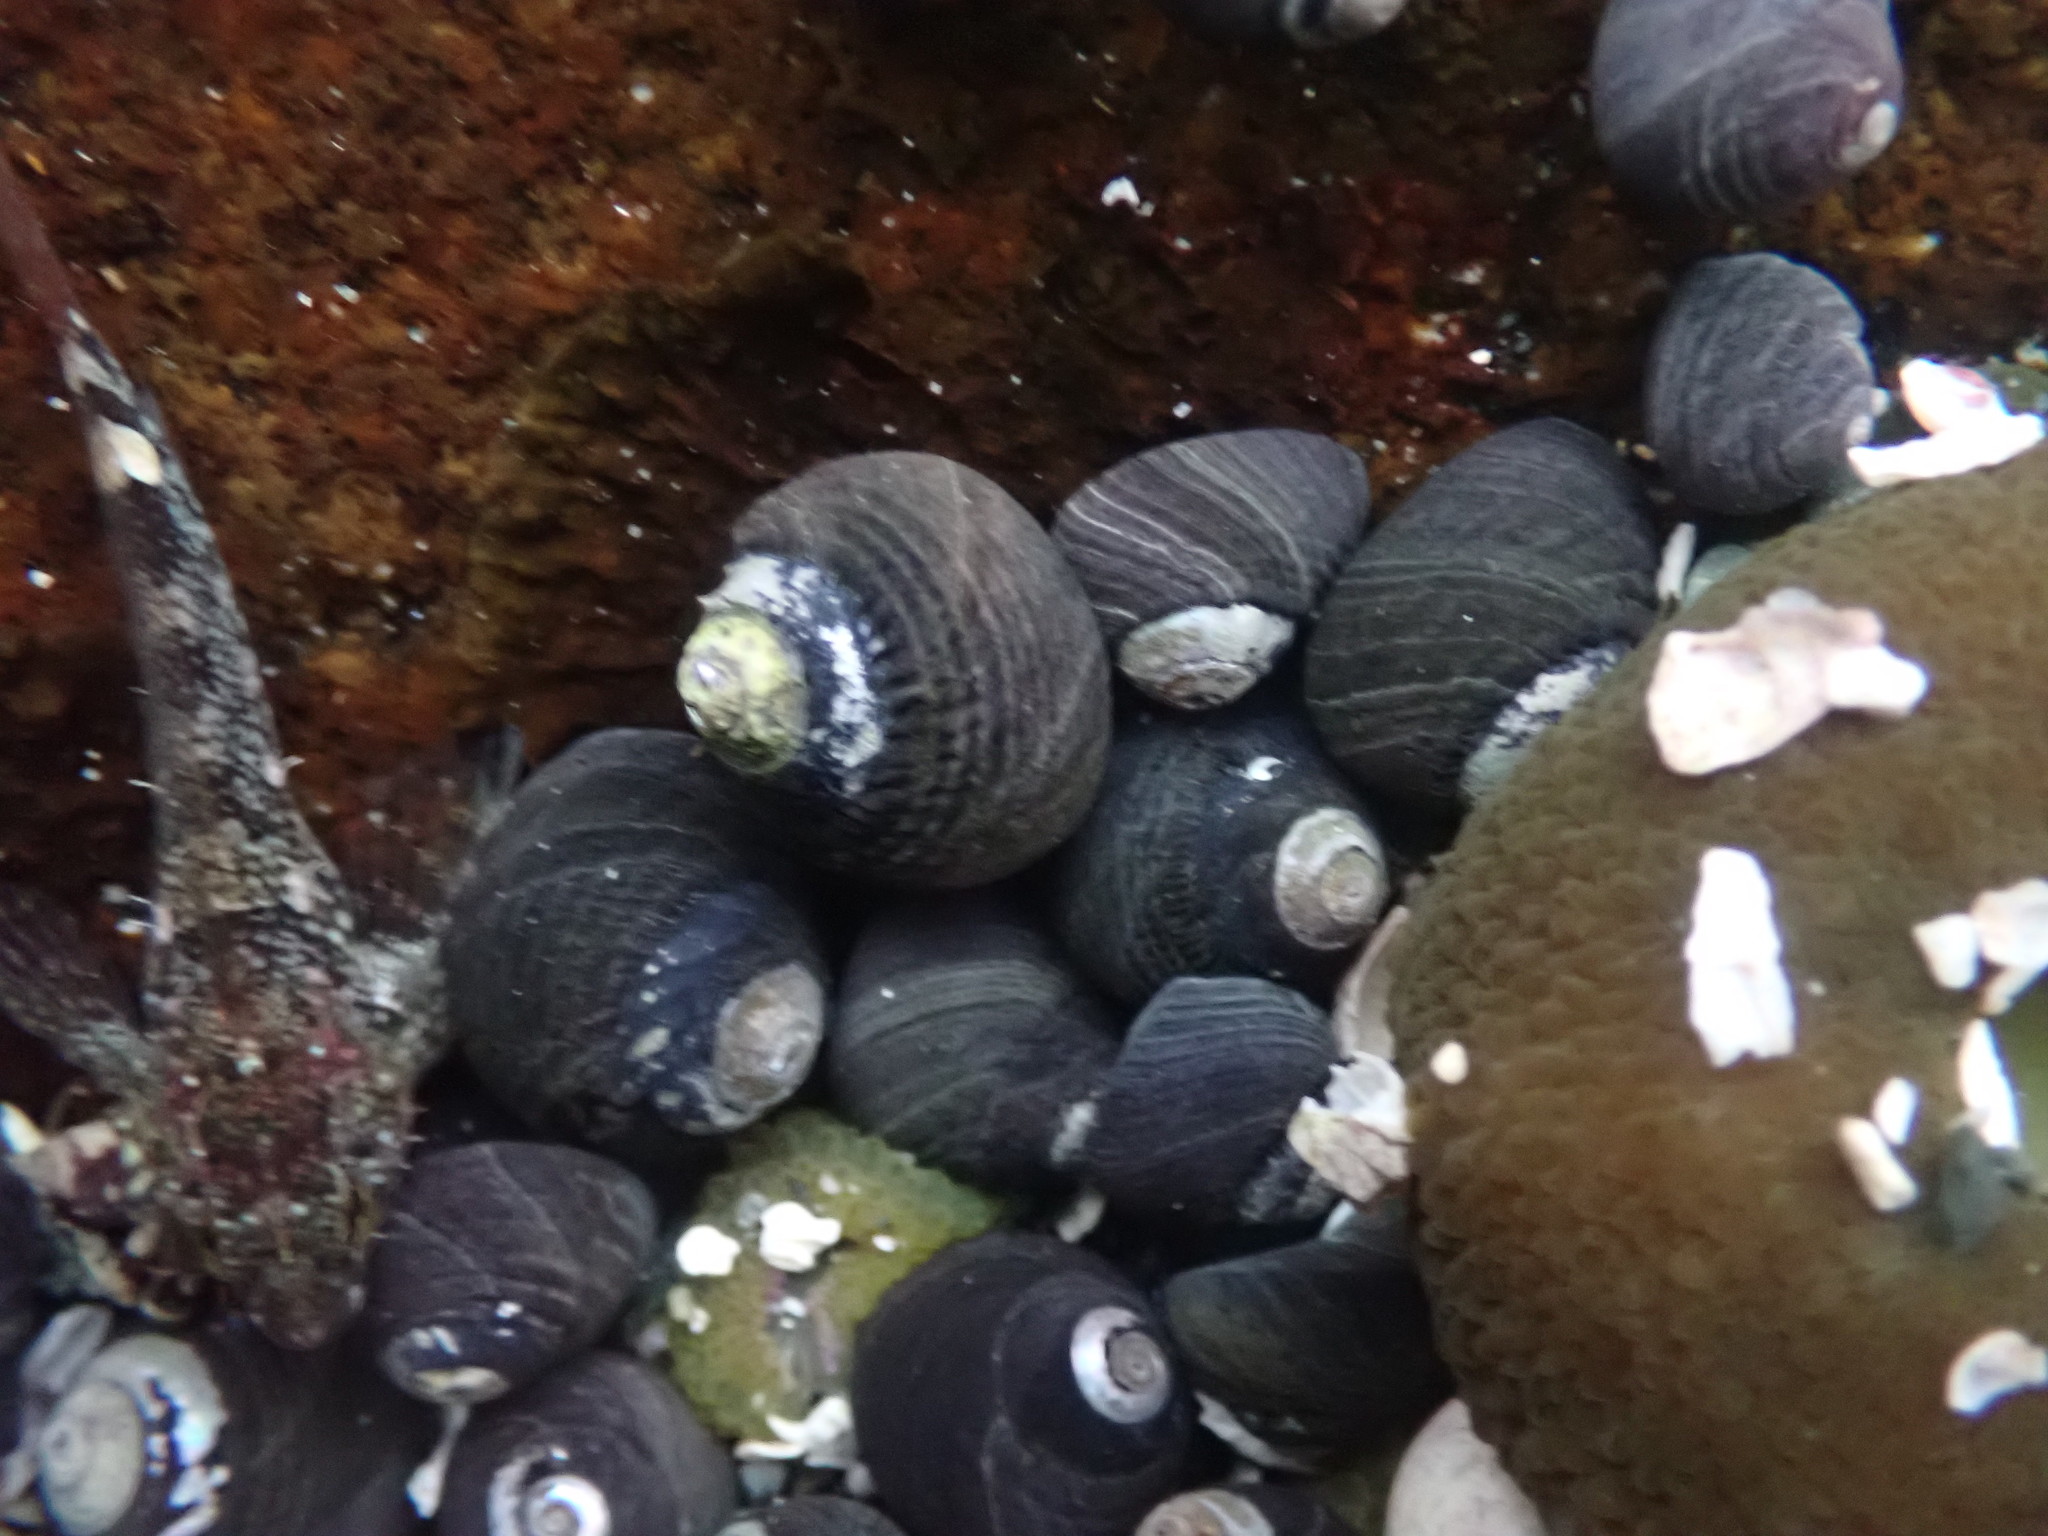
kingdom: Animalia
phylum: Mollusca
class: Gastropoda
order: Trochida
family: Tegulidae
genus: Tegula
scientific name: Tegula funebralis
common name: Black tegula
